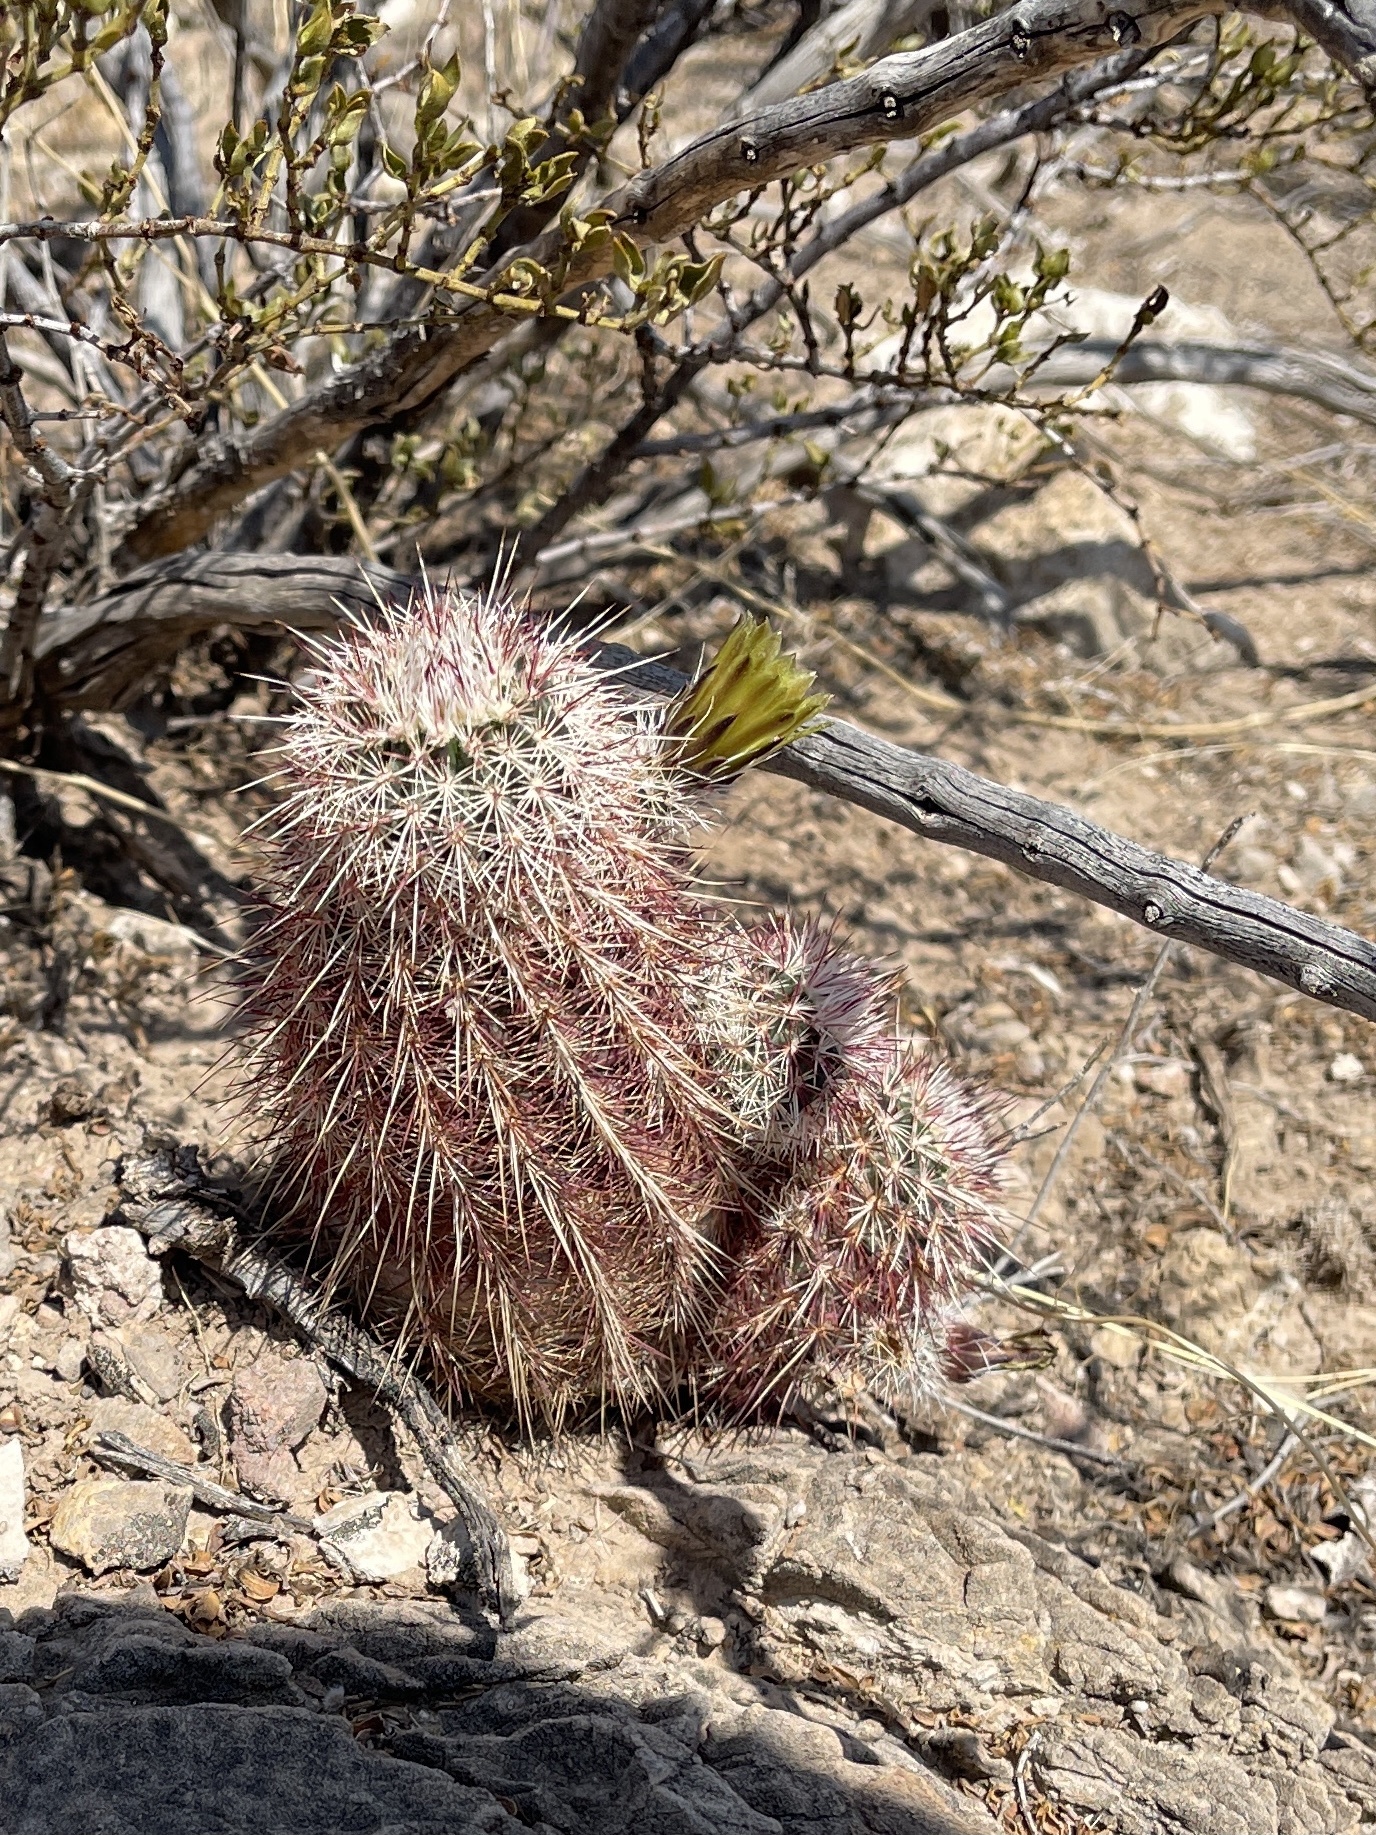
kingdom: Plantae
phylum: Tracheophyta
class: Magnoliopsida
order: Caryophyllales
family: Cactaceae
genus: Echinocereus
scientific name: Echinocereus viridiflorus
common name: Nylon hedgehog cactus
